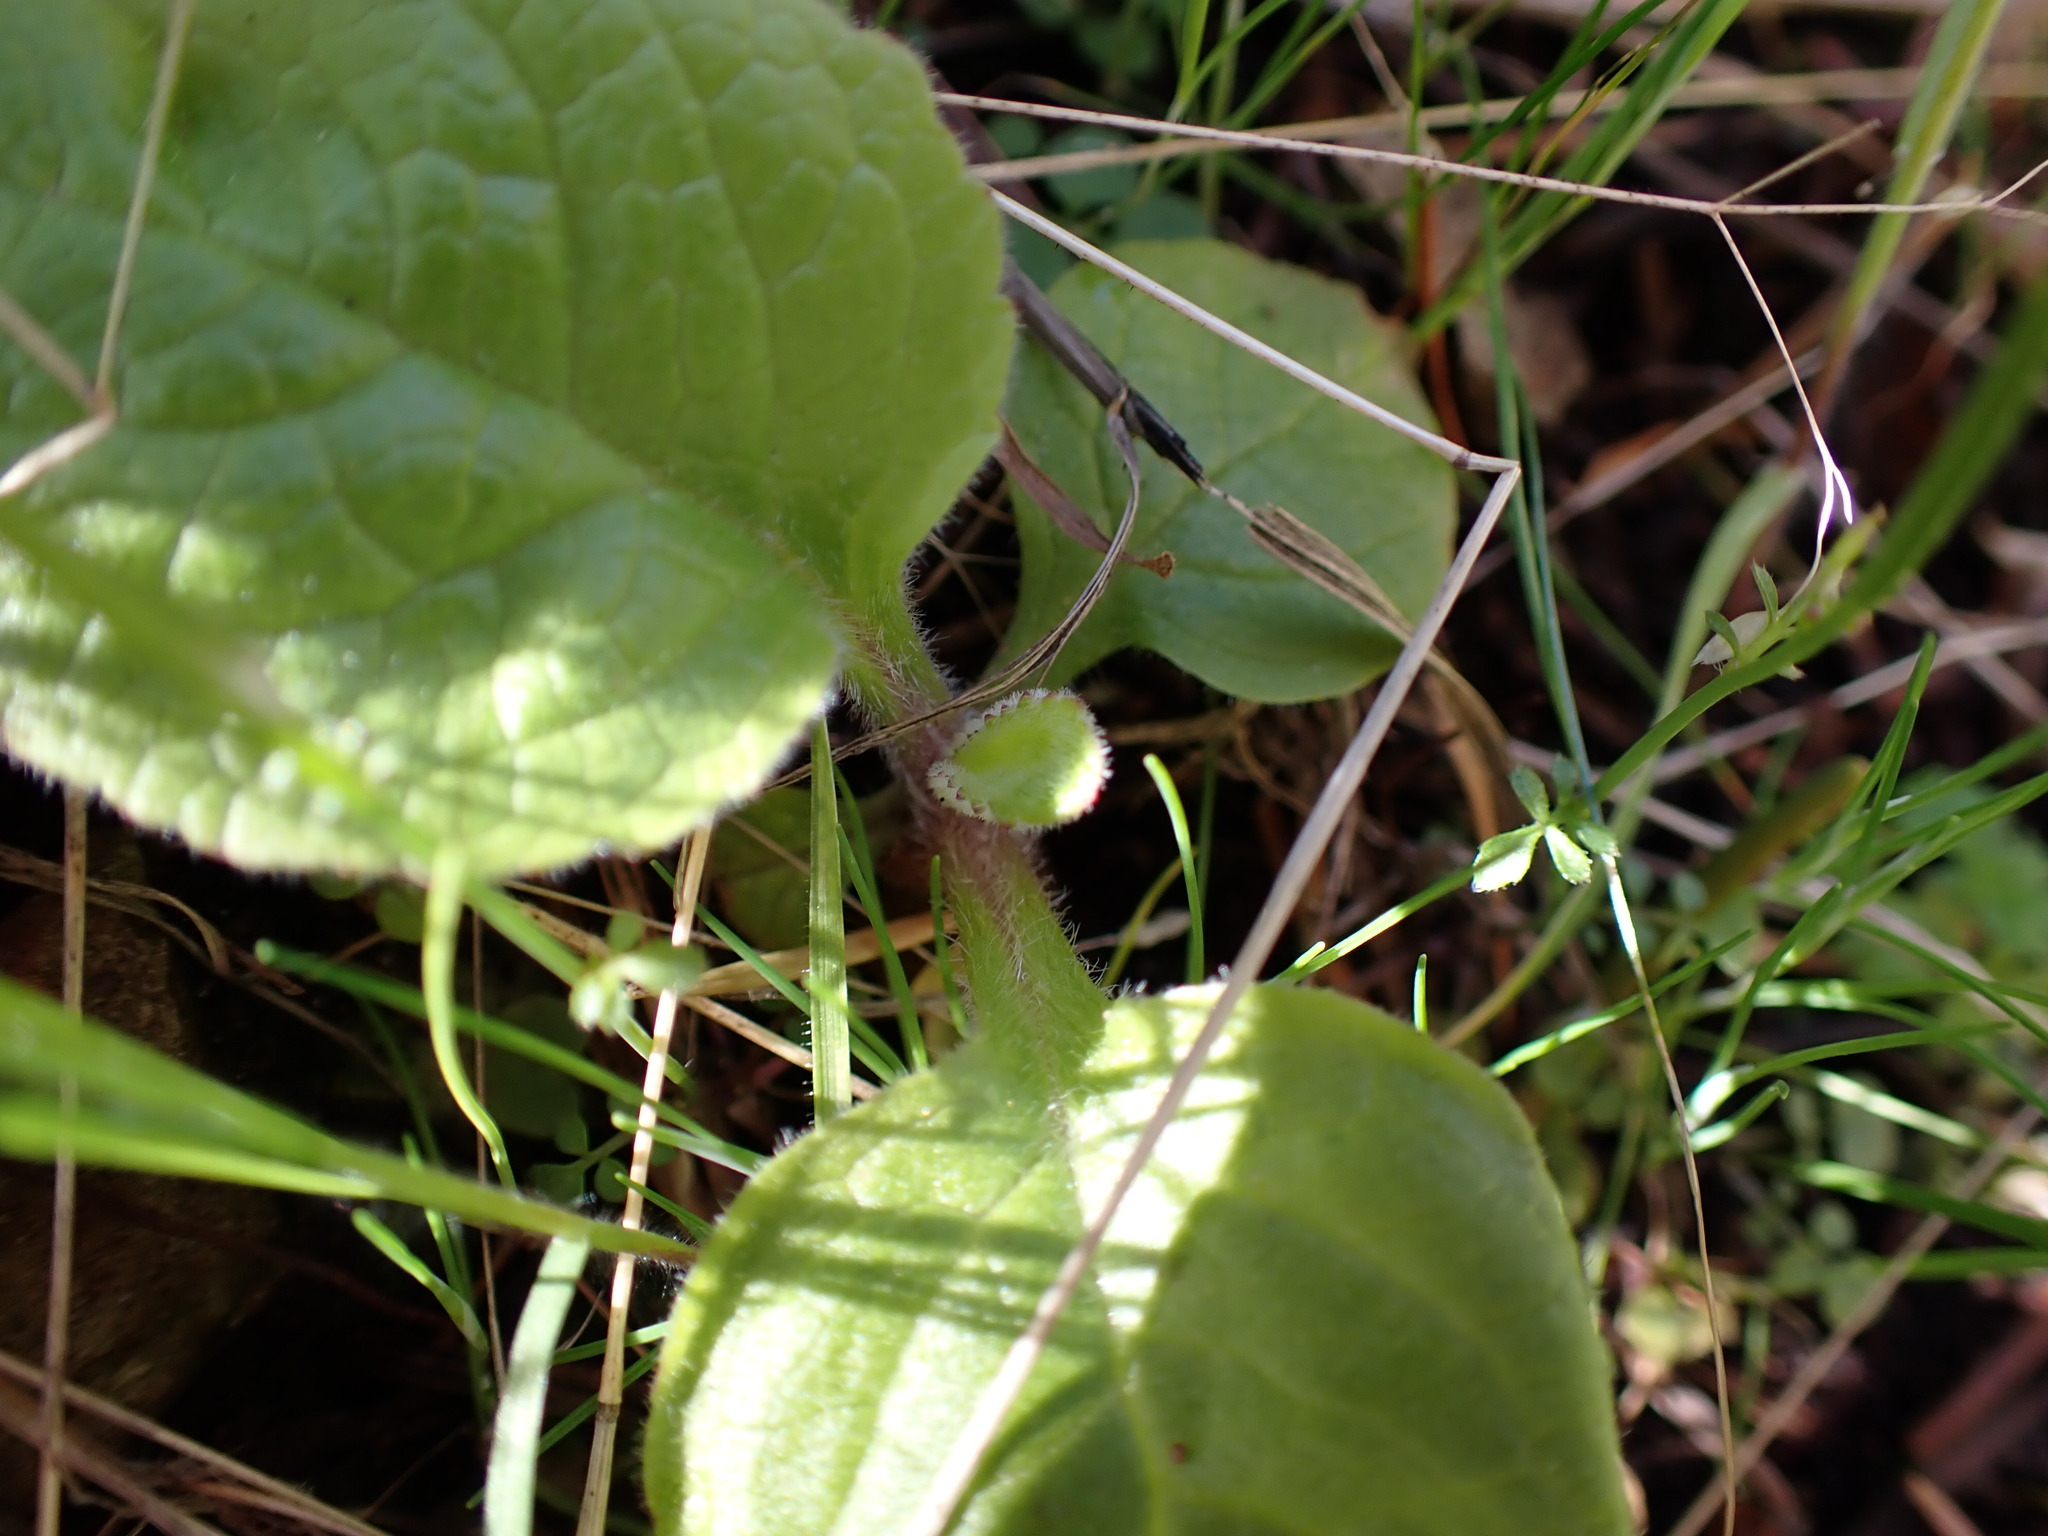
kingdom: Plantae
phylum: Tracheophyta
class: Magnoliopsida
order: Lamiales
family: Plantaginaceae
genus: Digitalis
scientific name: Digitalis purpurea
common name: Foxglove
